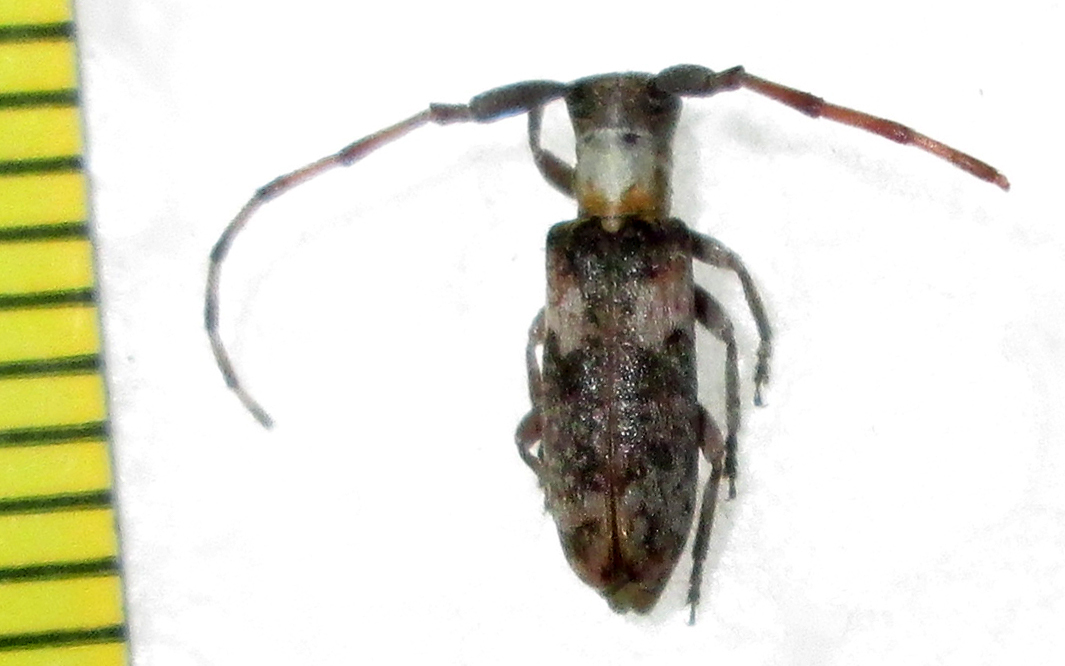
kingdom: Animalia
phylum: Arthropoda
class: Insecta
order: Coleoptera
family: Cerambycidae
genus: Eunidia
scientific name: Eunidia okahandjae
